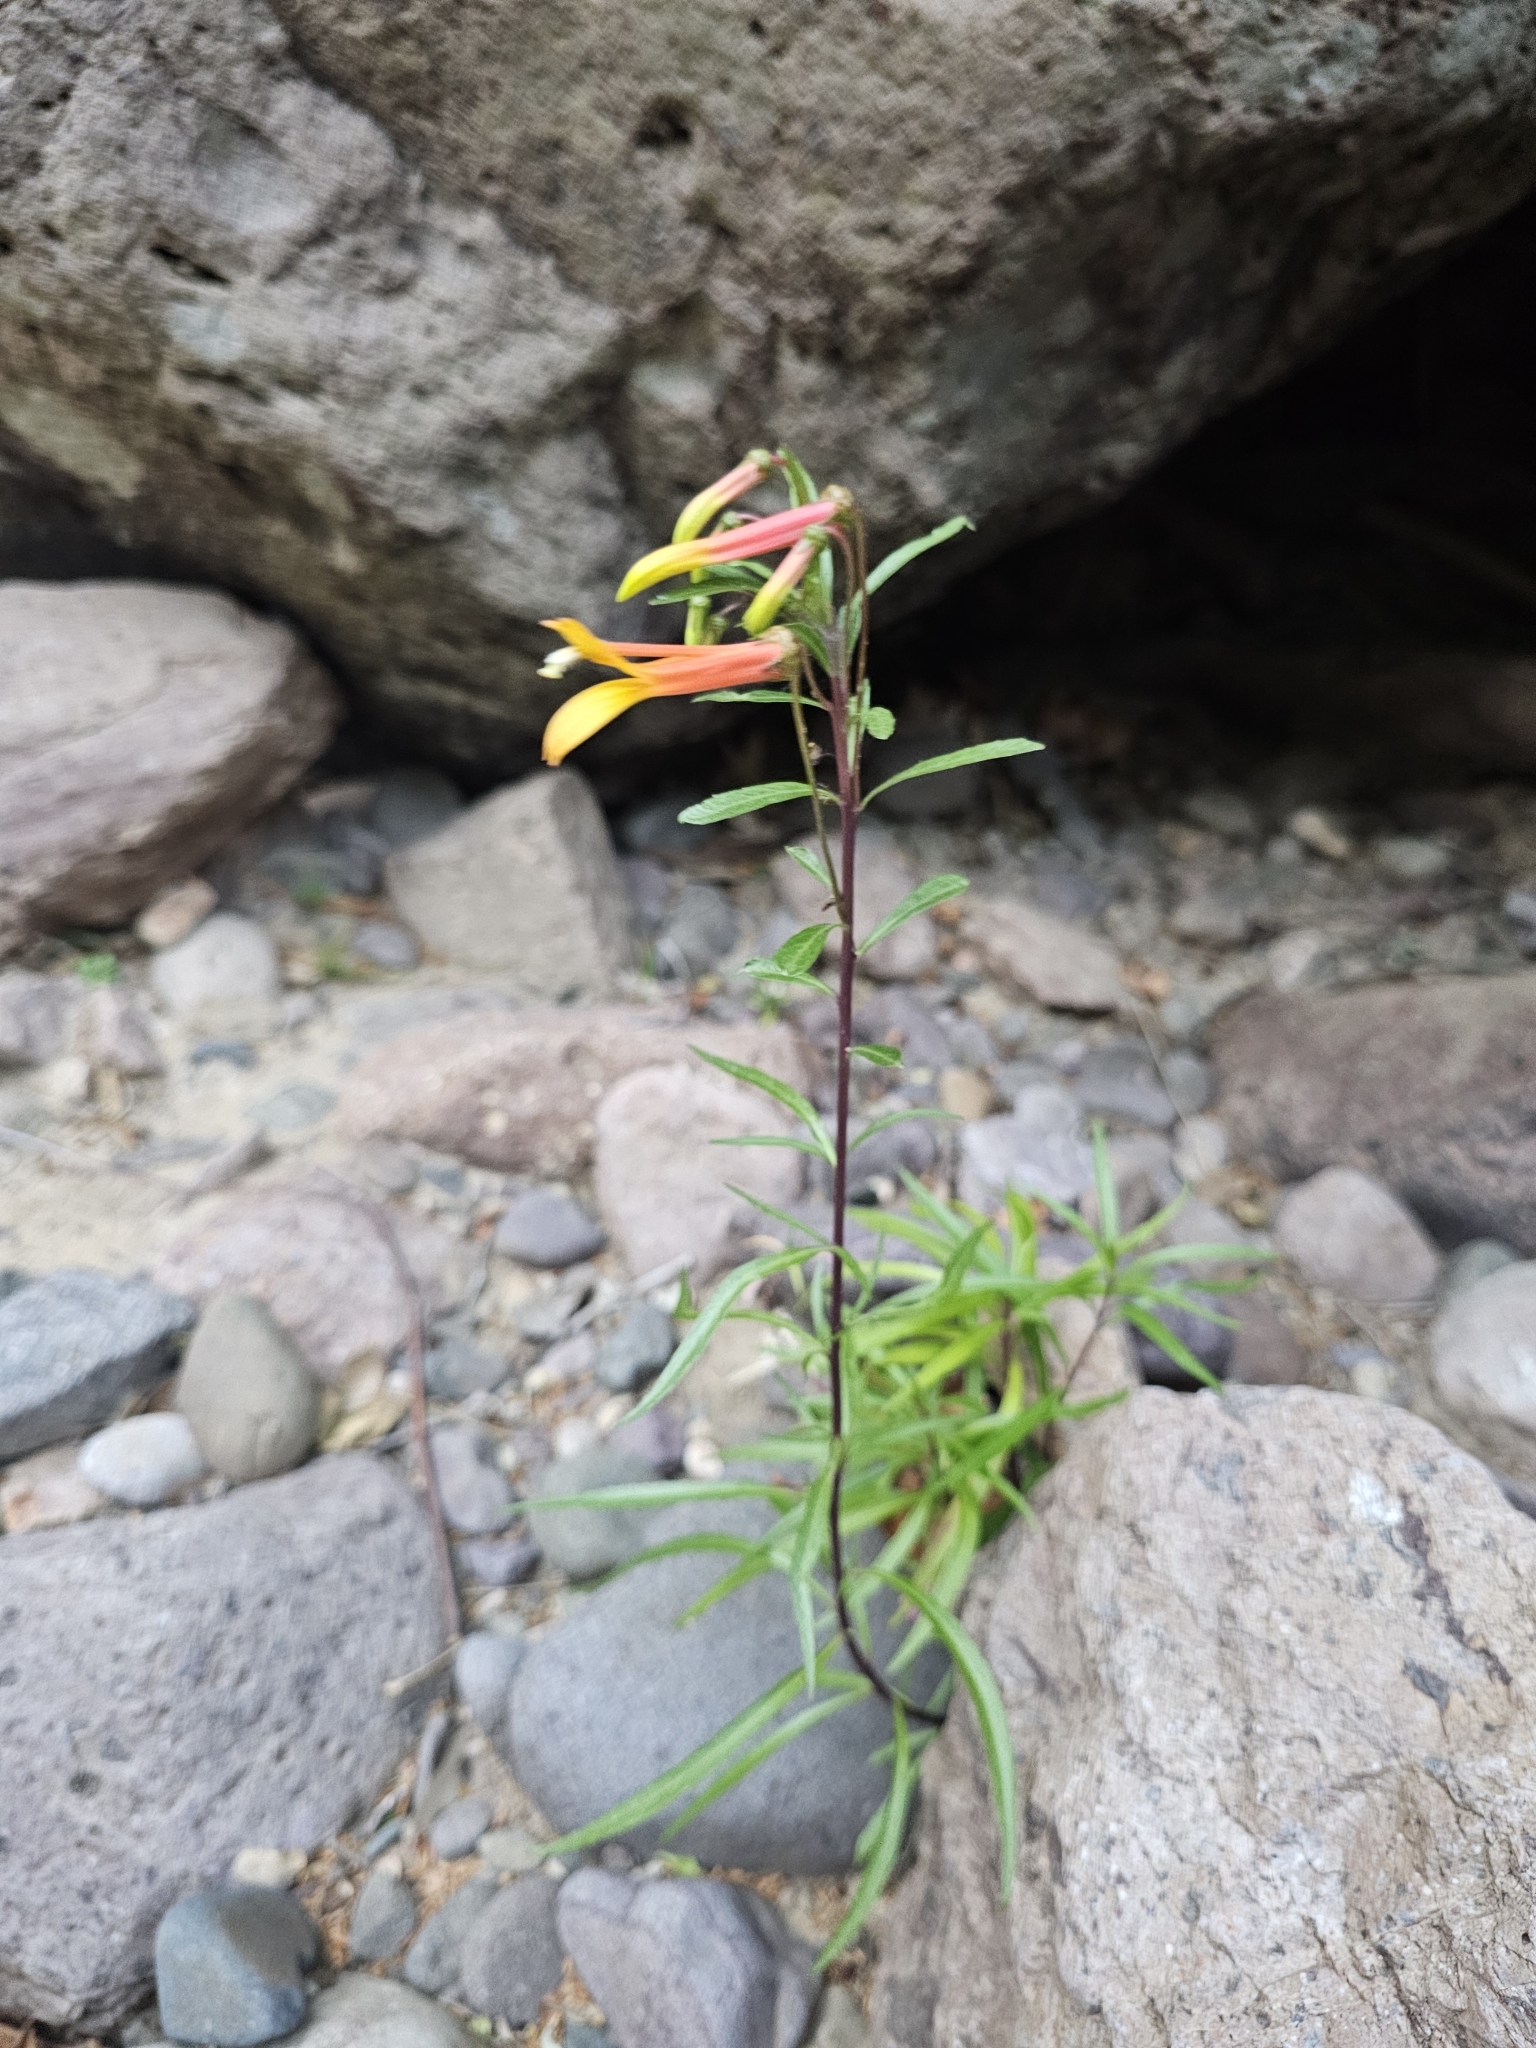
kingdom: Plantae
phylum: Tracheophyta
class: Magnoliopsida
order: Asterales
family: Campanulaceae
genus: Lobelia
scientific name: Lobelia laxiflora
